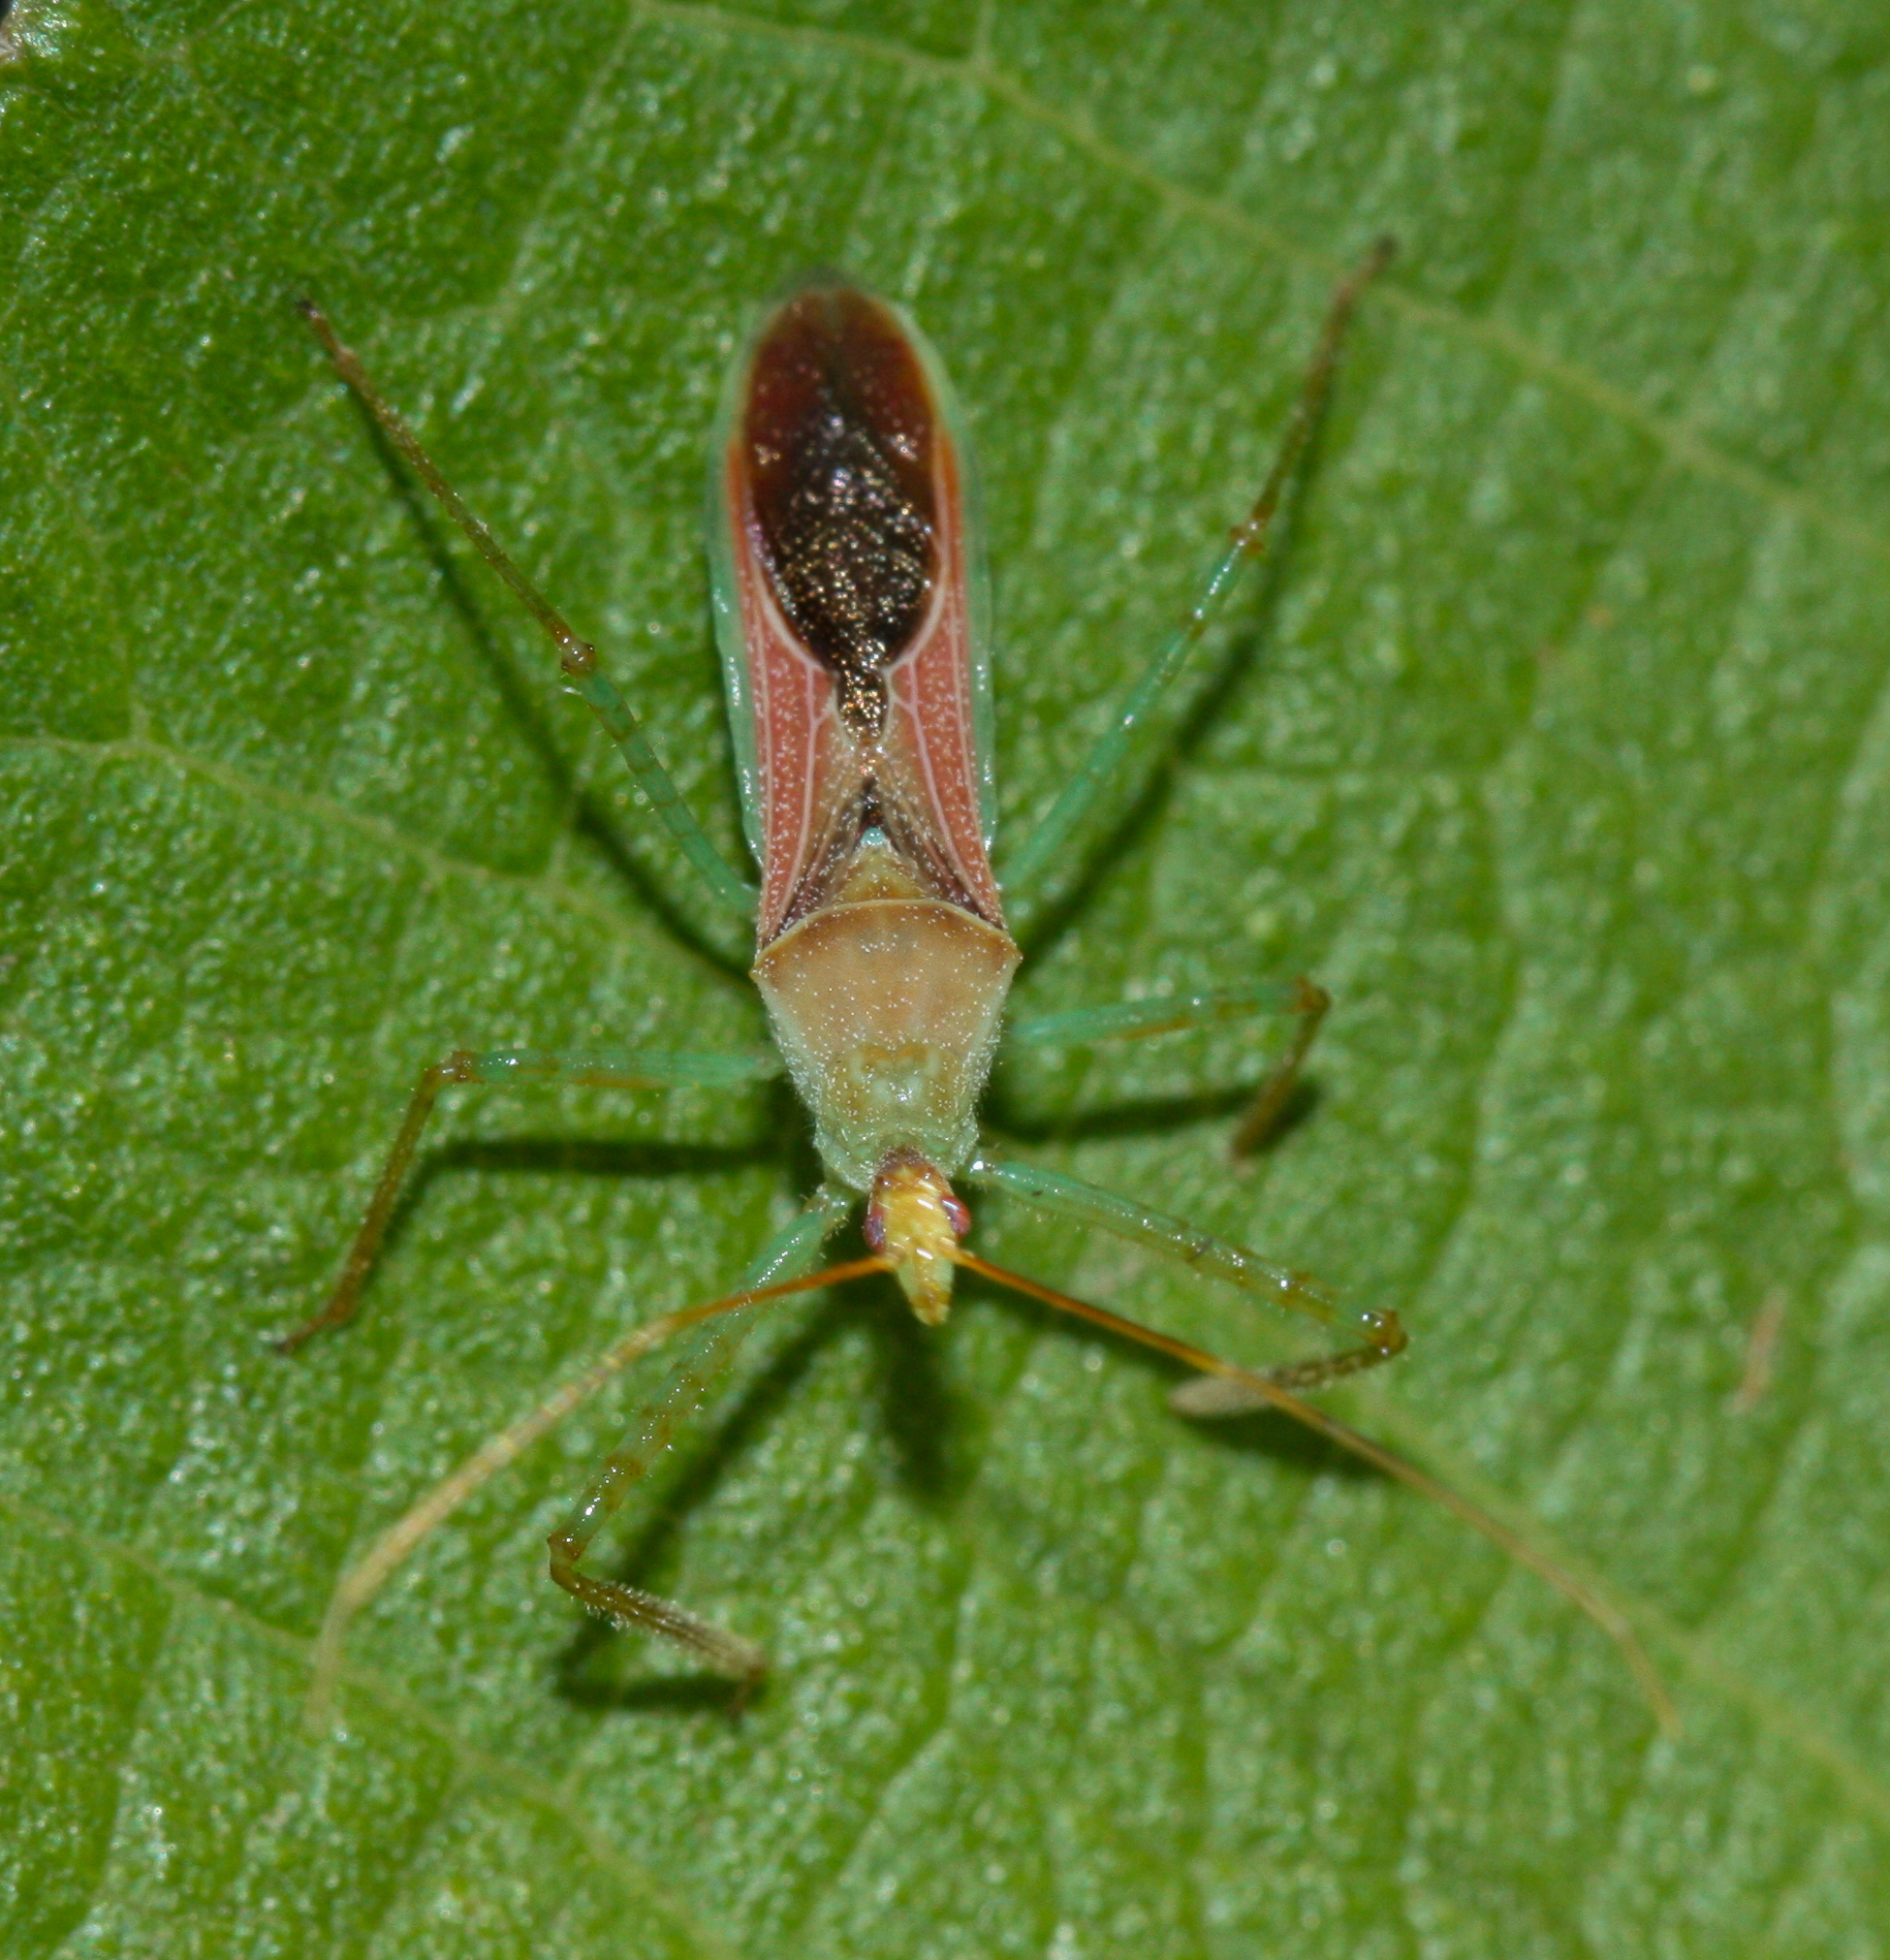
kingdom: Animalia
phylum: Arthropoda
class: Insecta
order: Hemiptera
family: Reduviidae
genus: Zelus
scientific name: Zelus renardii
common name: Assassin bug
